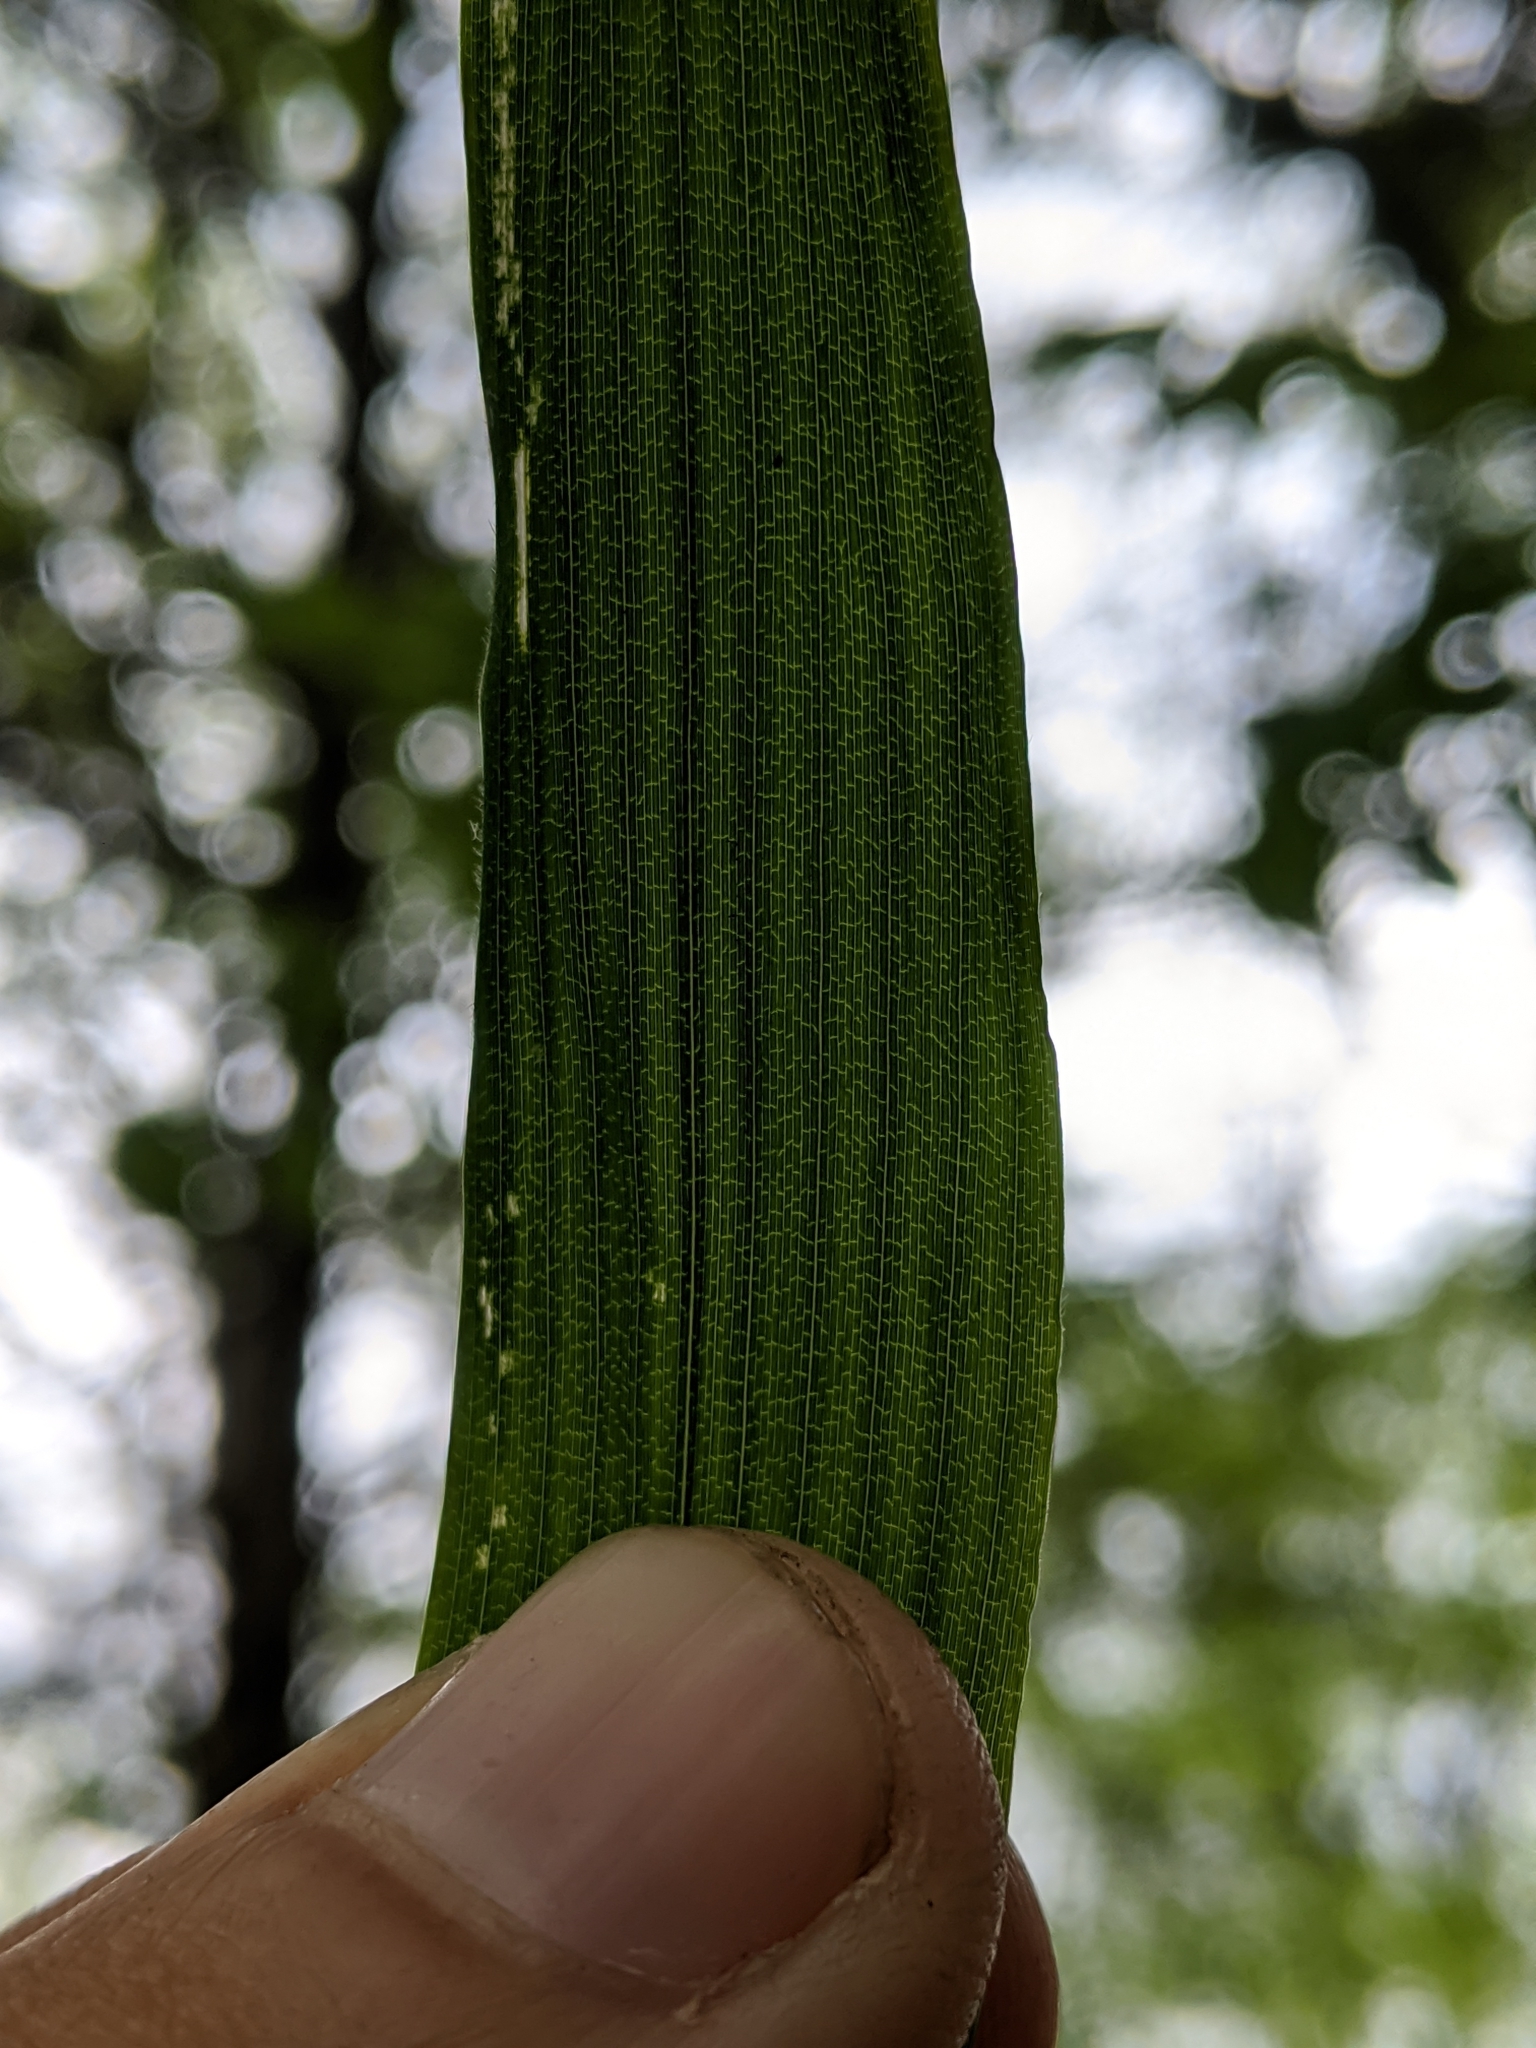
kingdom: Plantae
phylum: Tracheophyta
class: Liliopsida
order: Poales
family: Poaceae
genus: Brachyelytrum
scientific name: Brachyelytrum erectum
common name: Bearded shorthusk
